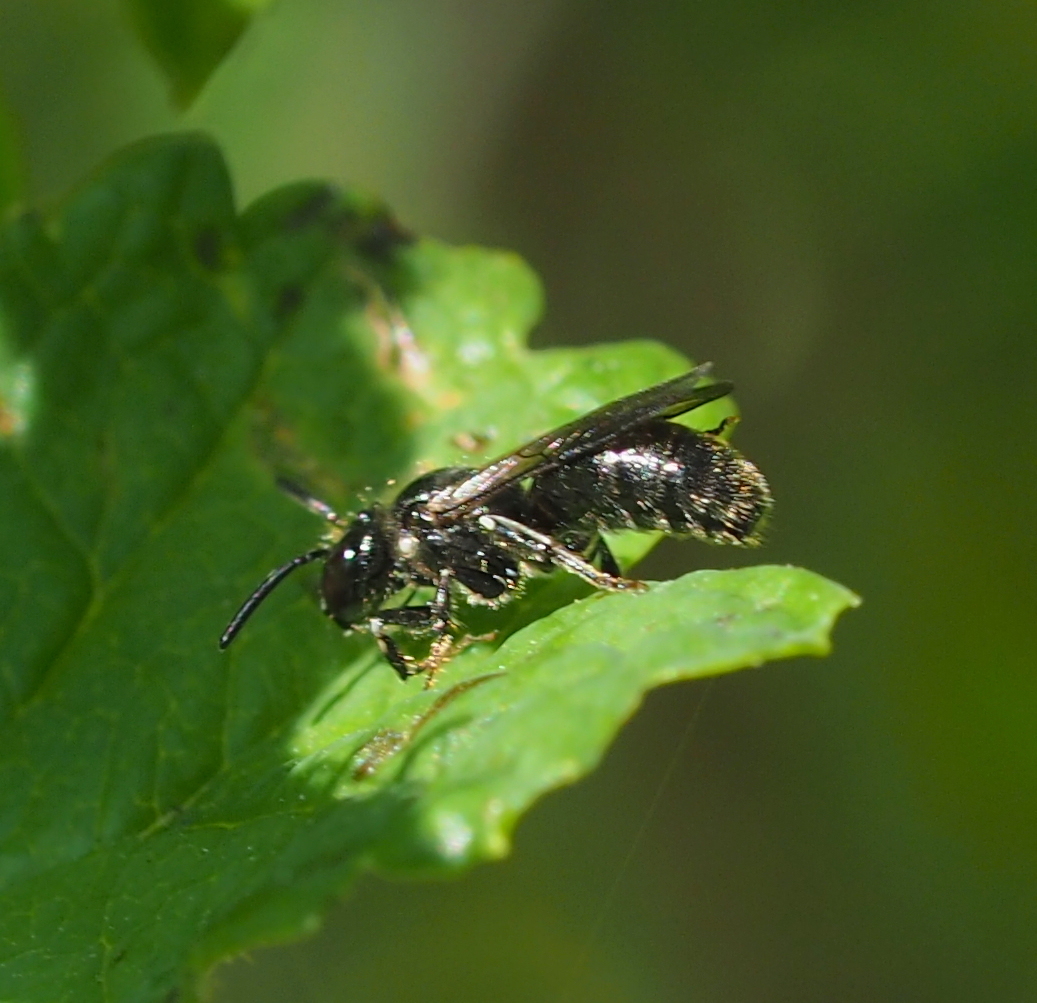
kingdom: Animalia
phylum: Arthropoda
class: Insecta
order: Hymenoptera
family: Apidae
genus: Ceratina
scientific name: Ceratina cucurbitina
